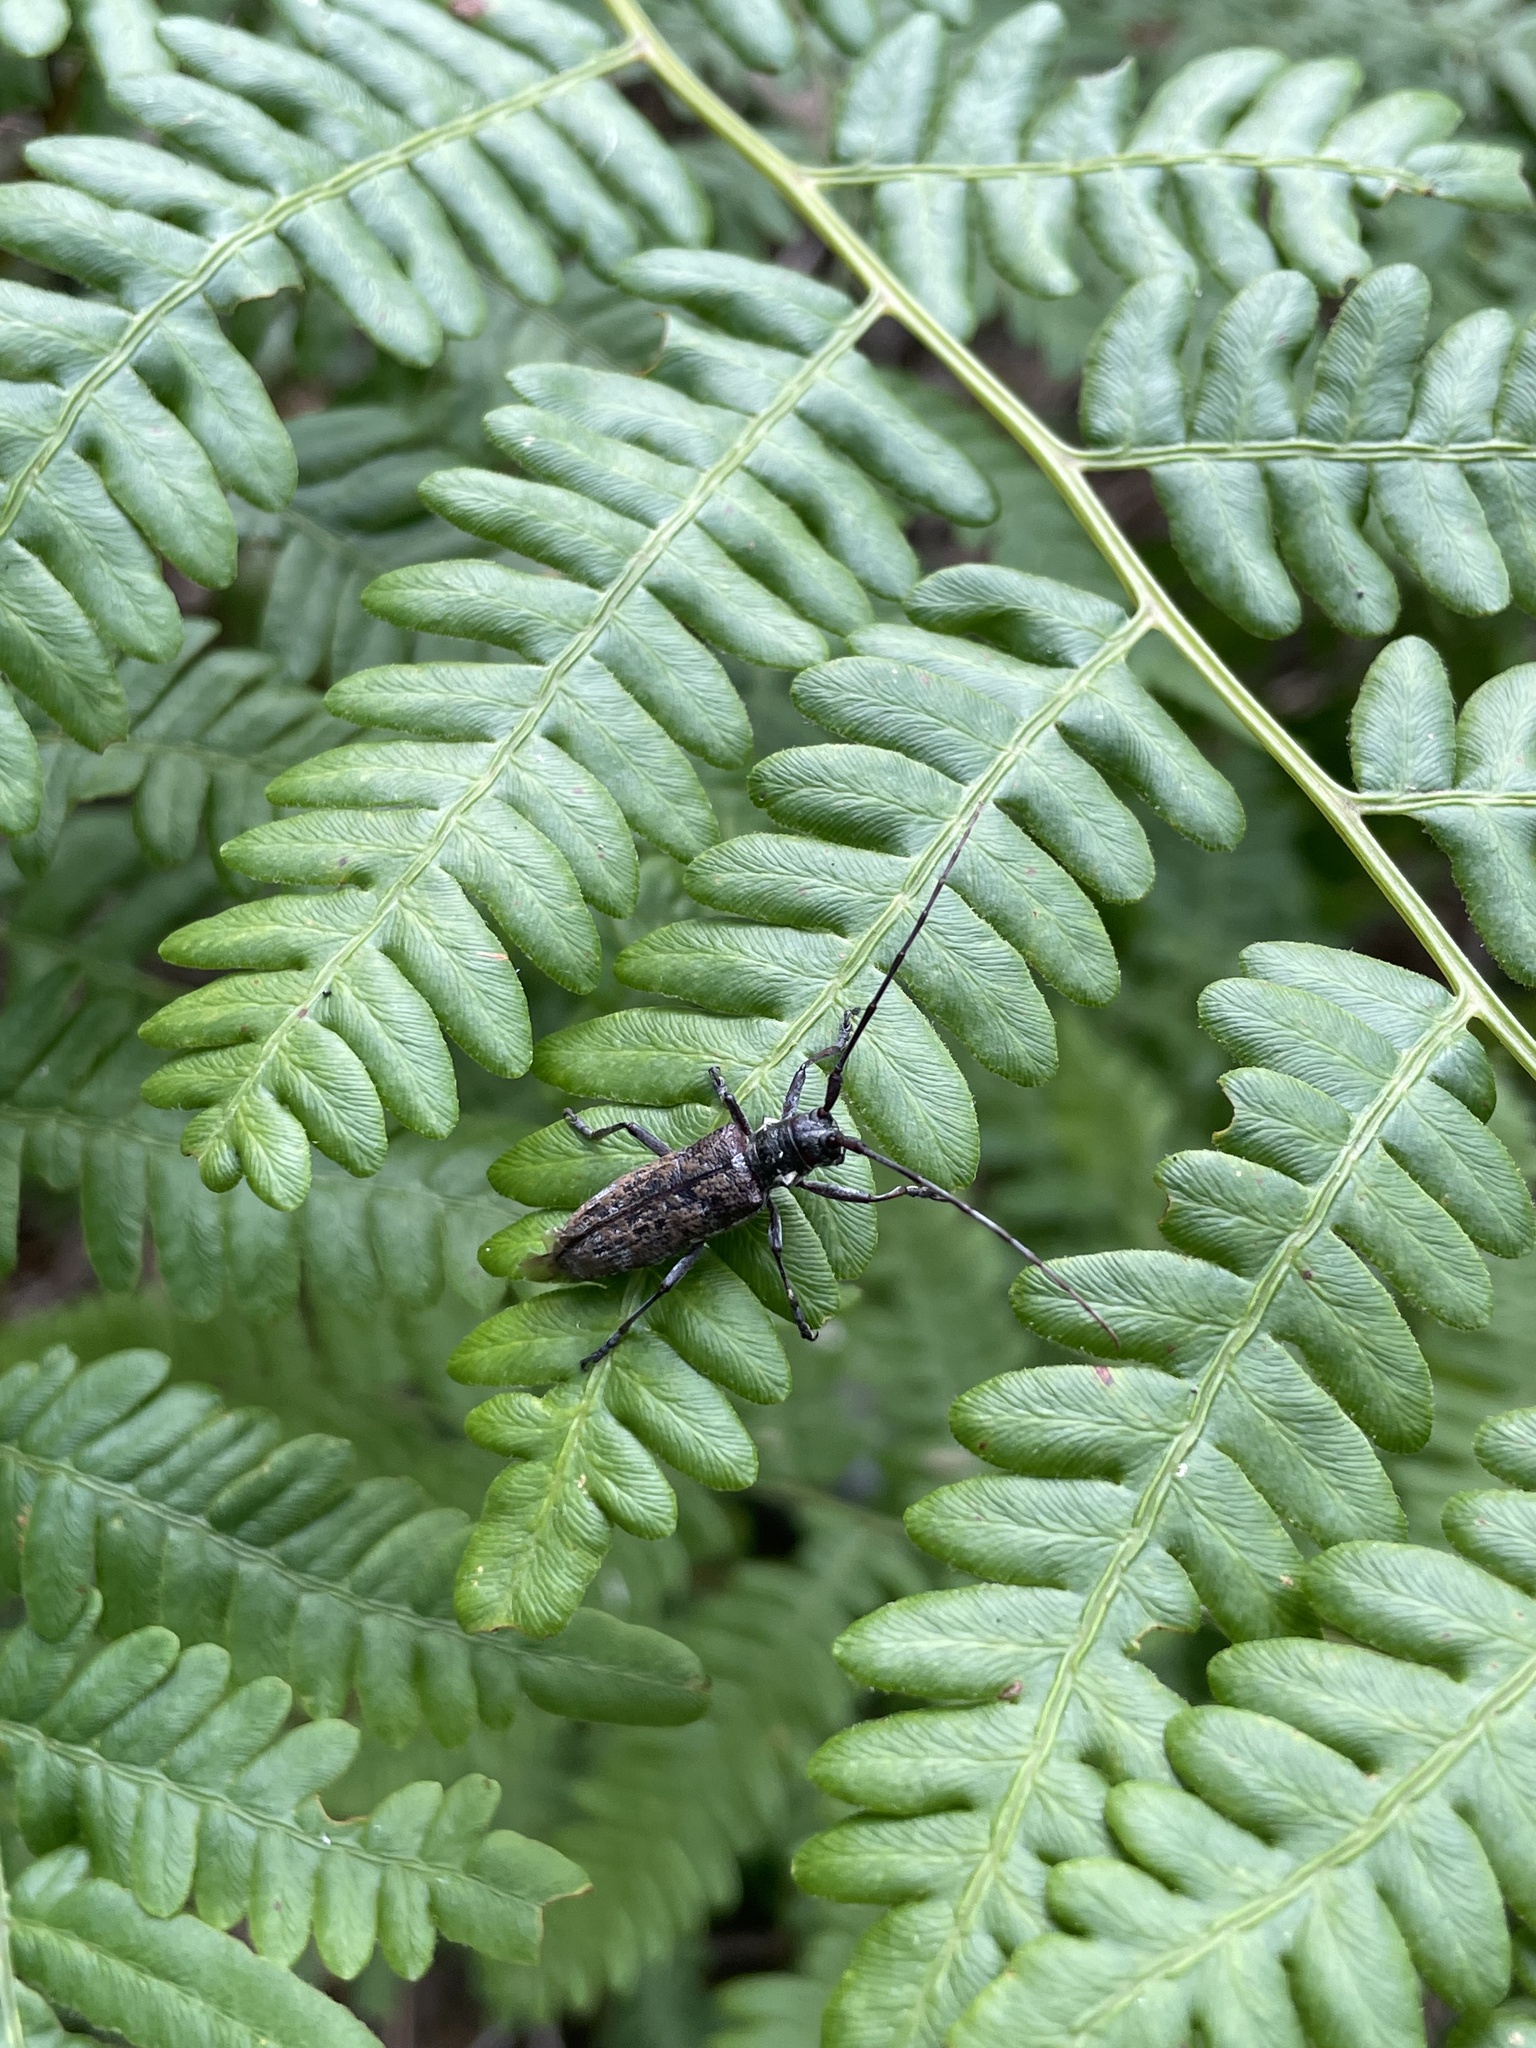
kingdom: Animalia
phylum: Arthropoda
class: Insecta
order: Coleoptera
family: Cerambycidae
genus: Monochamus
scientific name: Monochamus
